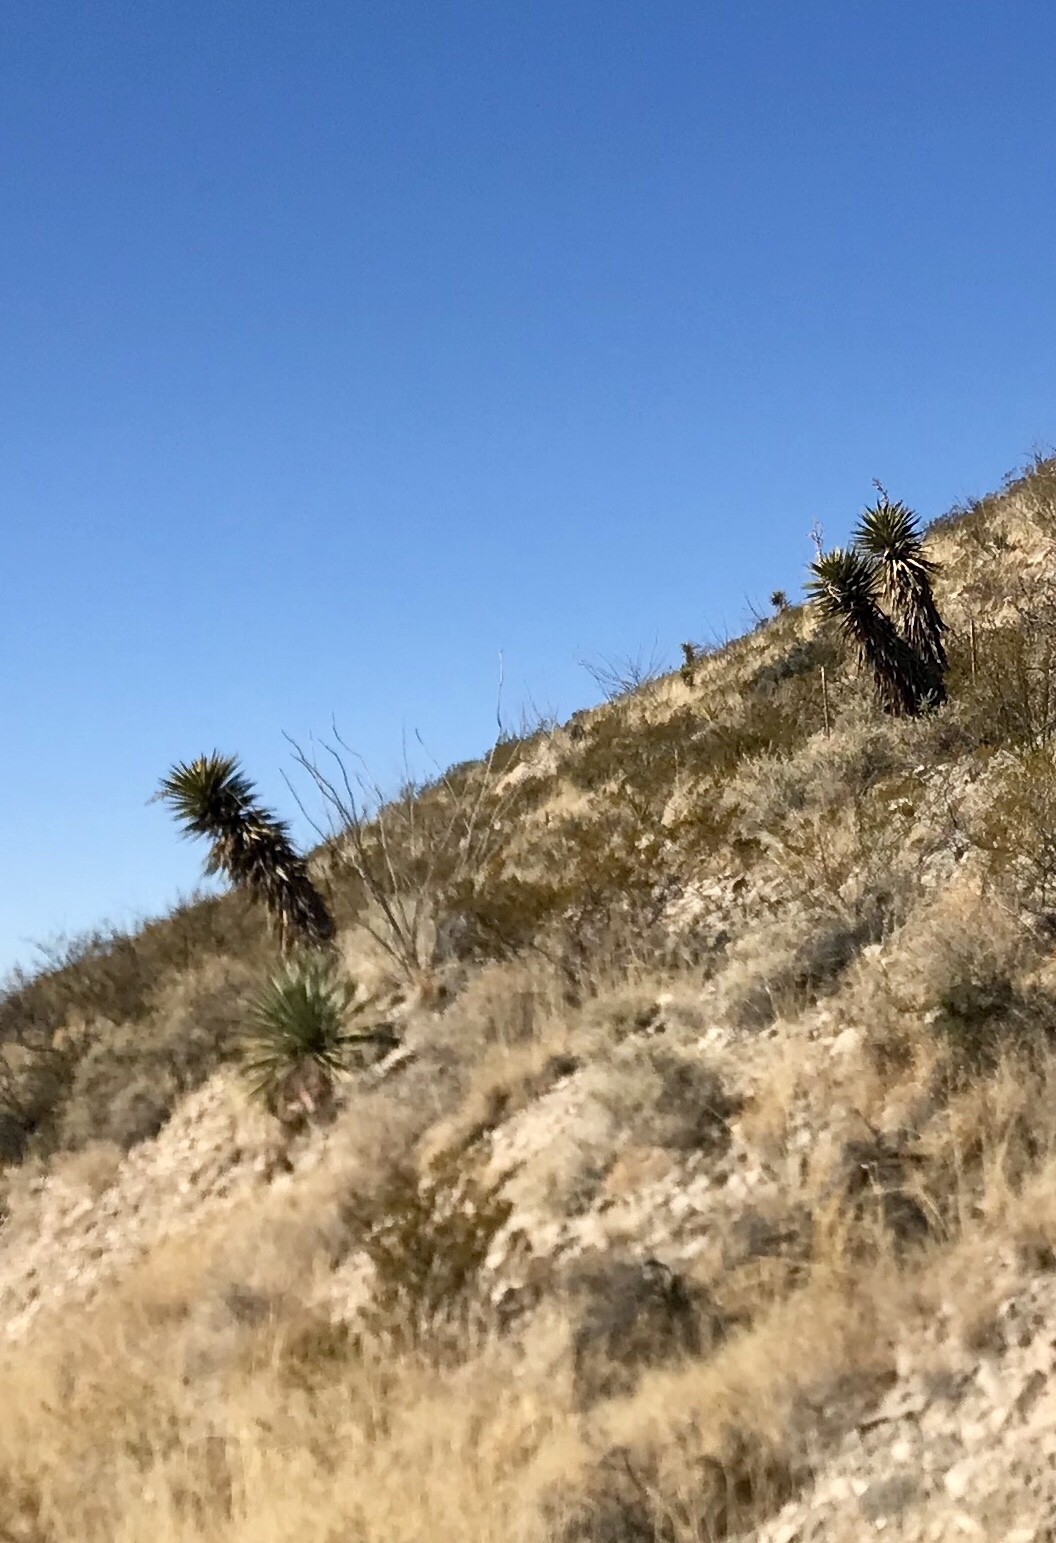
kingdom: Plantae
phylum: Tracheophyta
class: Liliopsida
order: Asparagales
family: Asparagaceae
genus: Yucca
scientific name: Yucca treculiana
